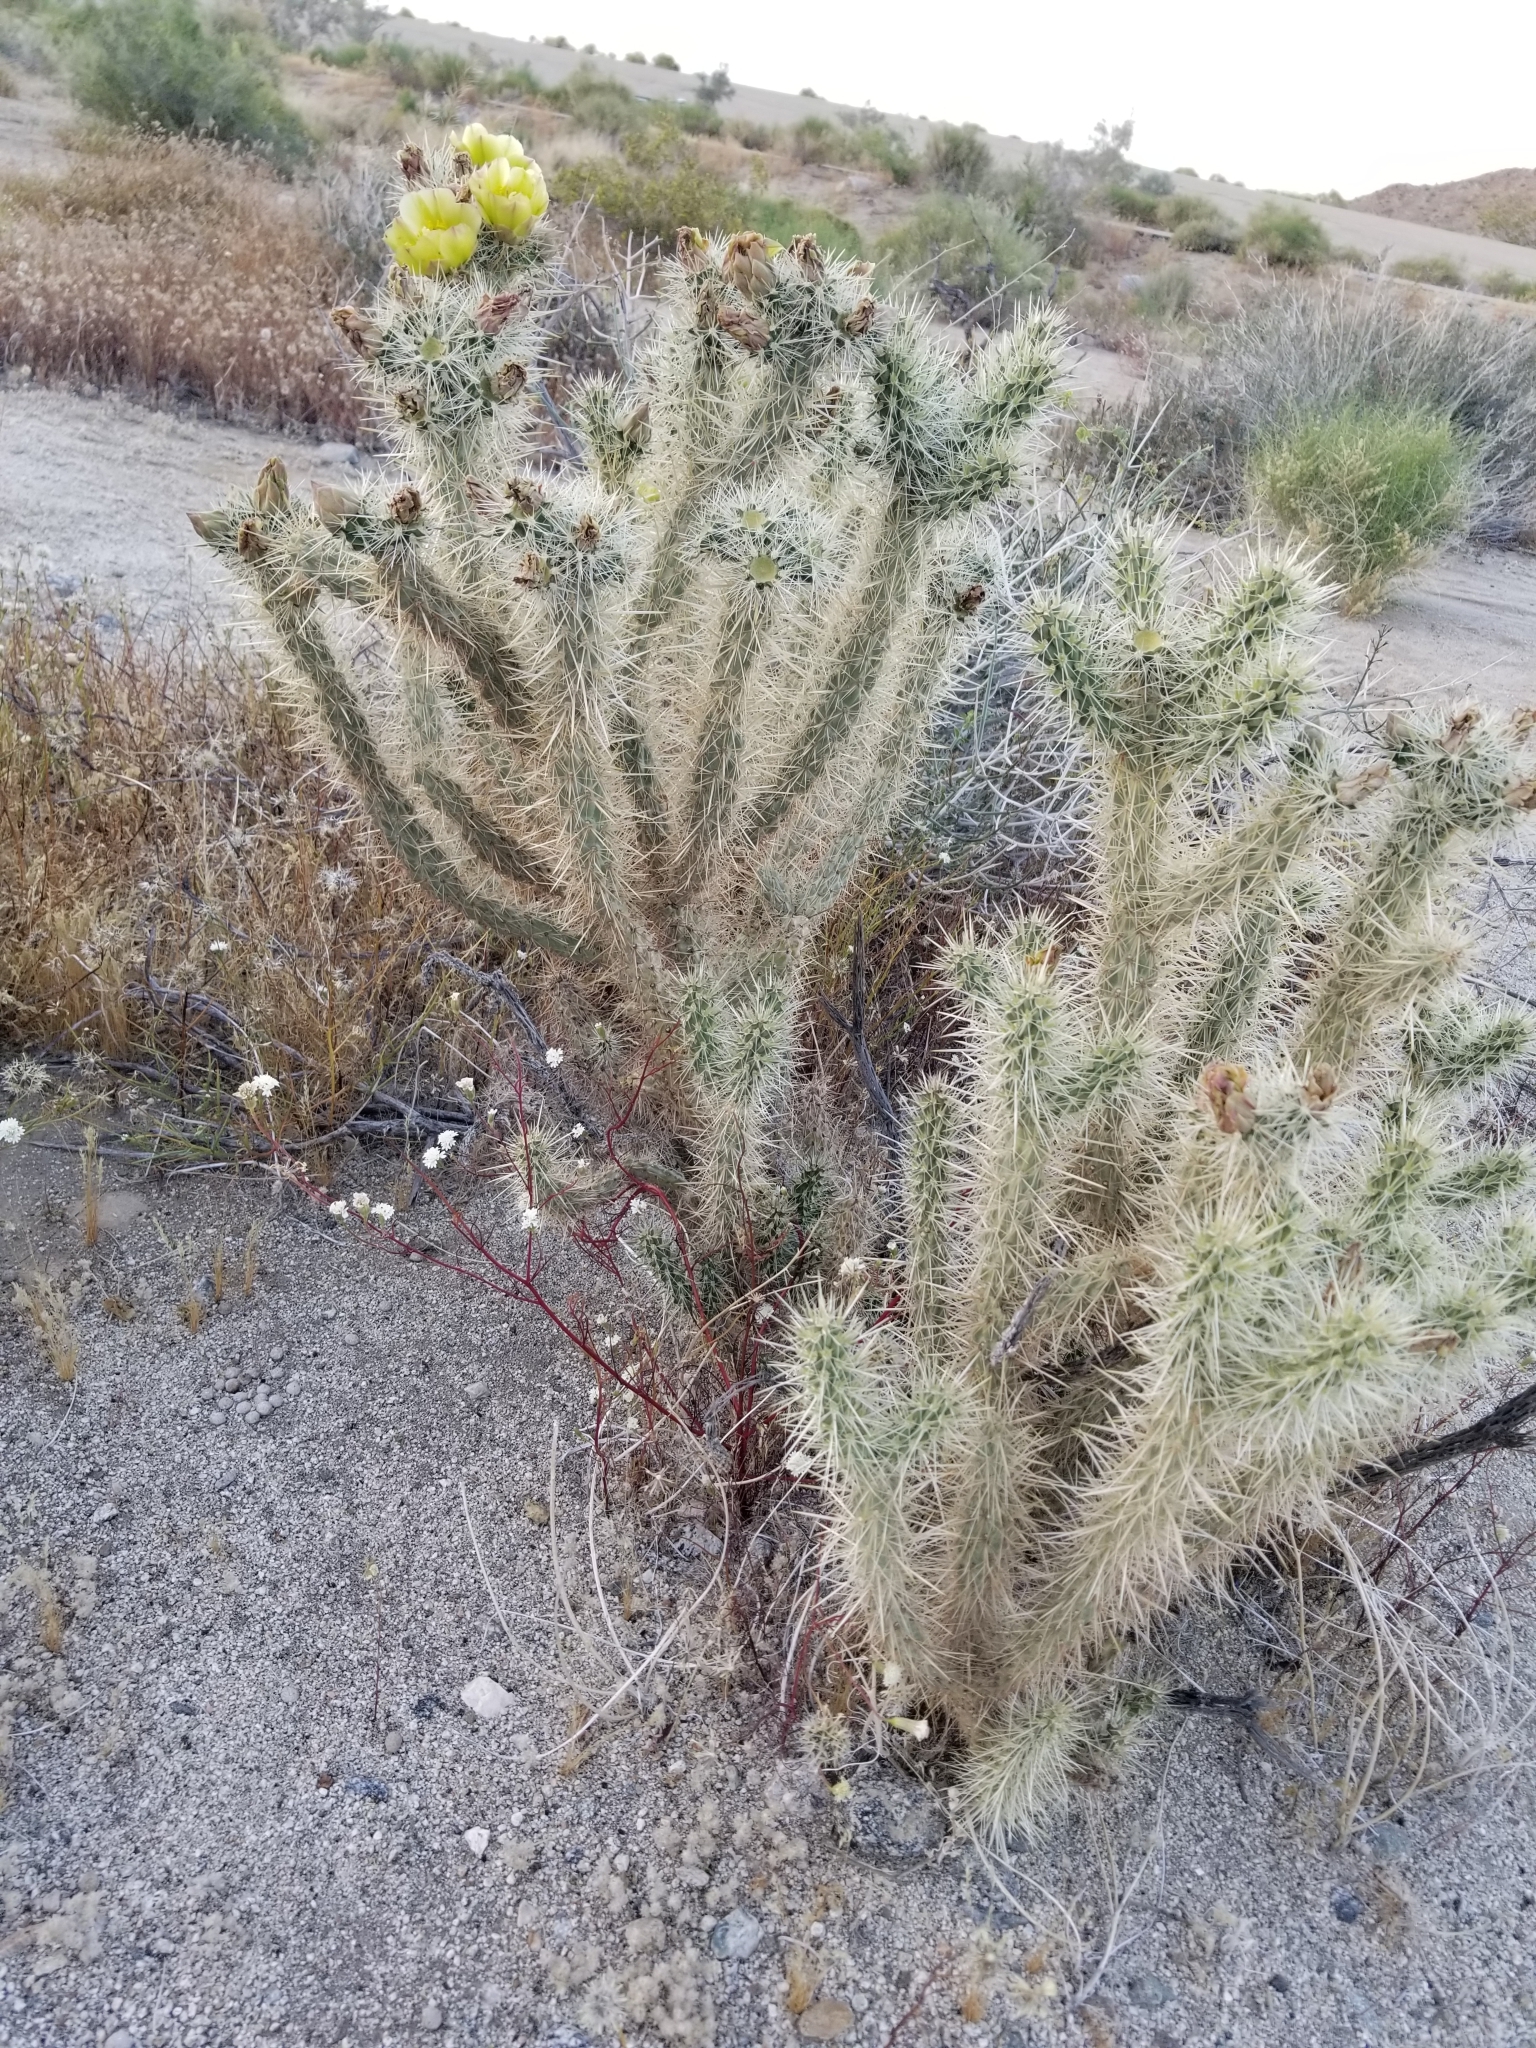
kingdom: Plantae
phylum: Tracheophyta
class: Magnoliopsida
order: Caryophyllales
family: Cactaceae
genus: Cylindropuntia
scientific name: Cylindropuntia ganderi
